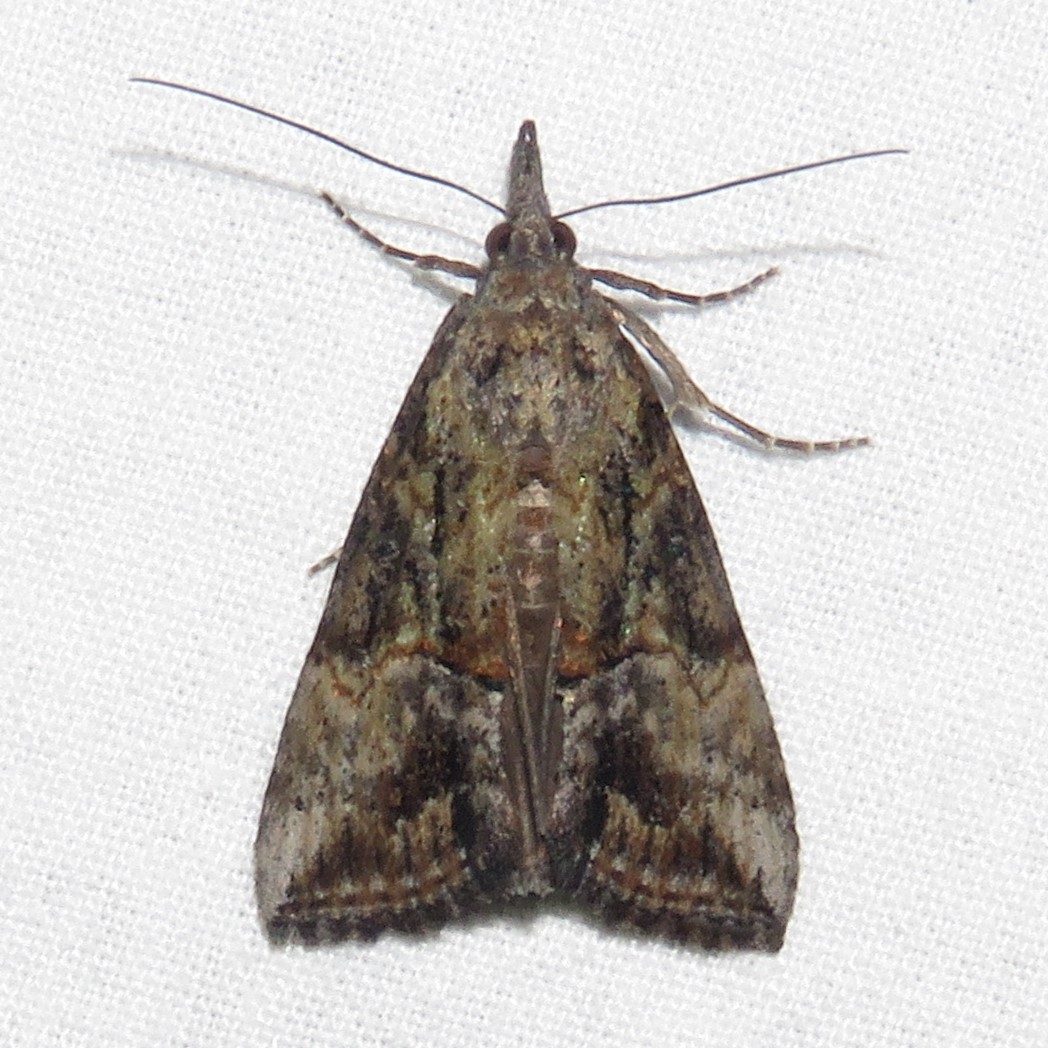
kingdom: Animalia
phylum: Arthropoda
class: Insecta
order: Lepidoptera
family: Erebidae
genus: Hypena
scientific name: Hypena scabra
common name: Green cloverworm
